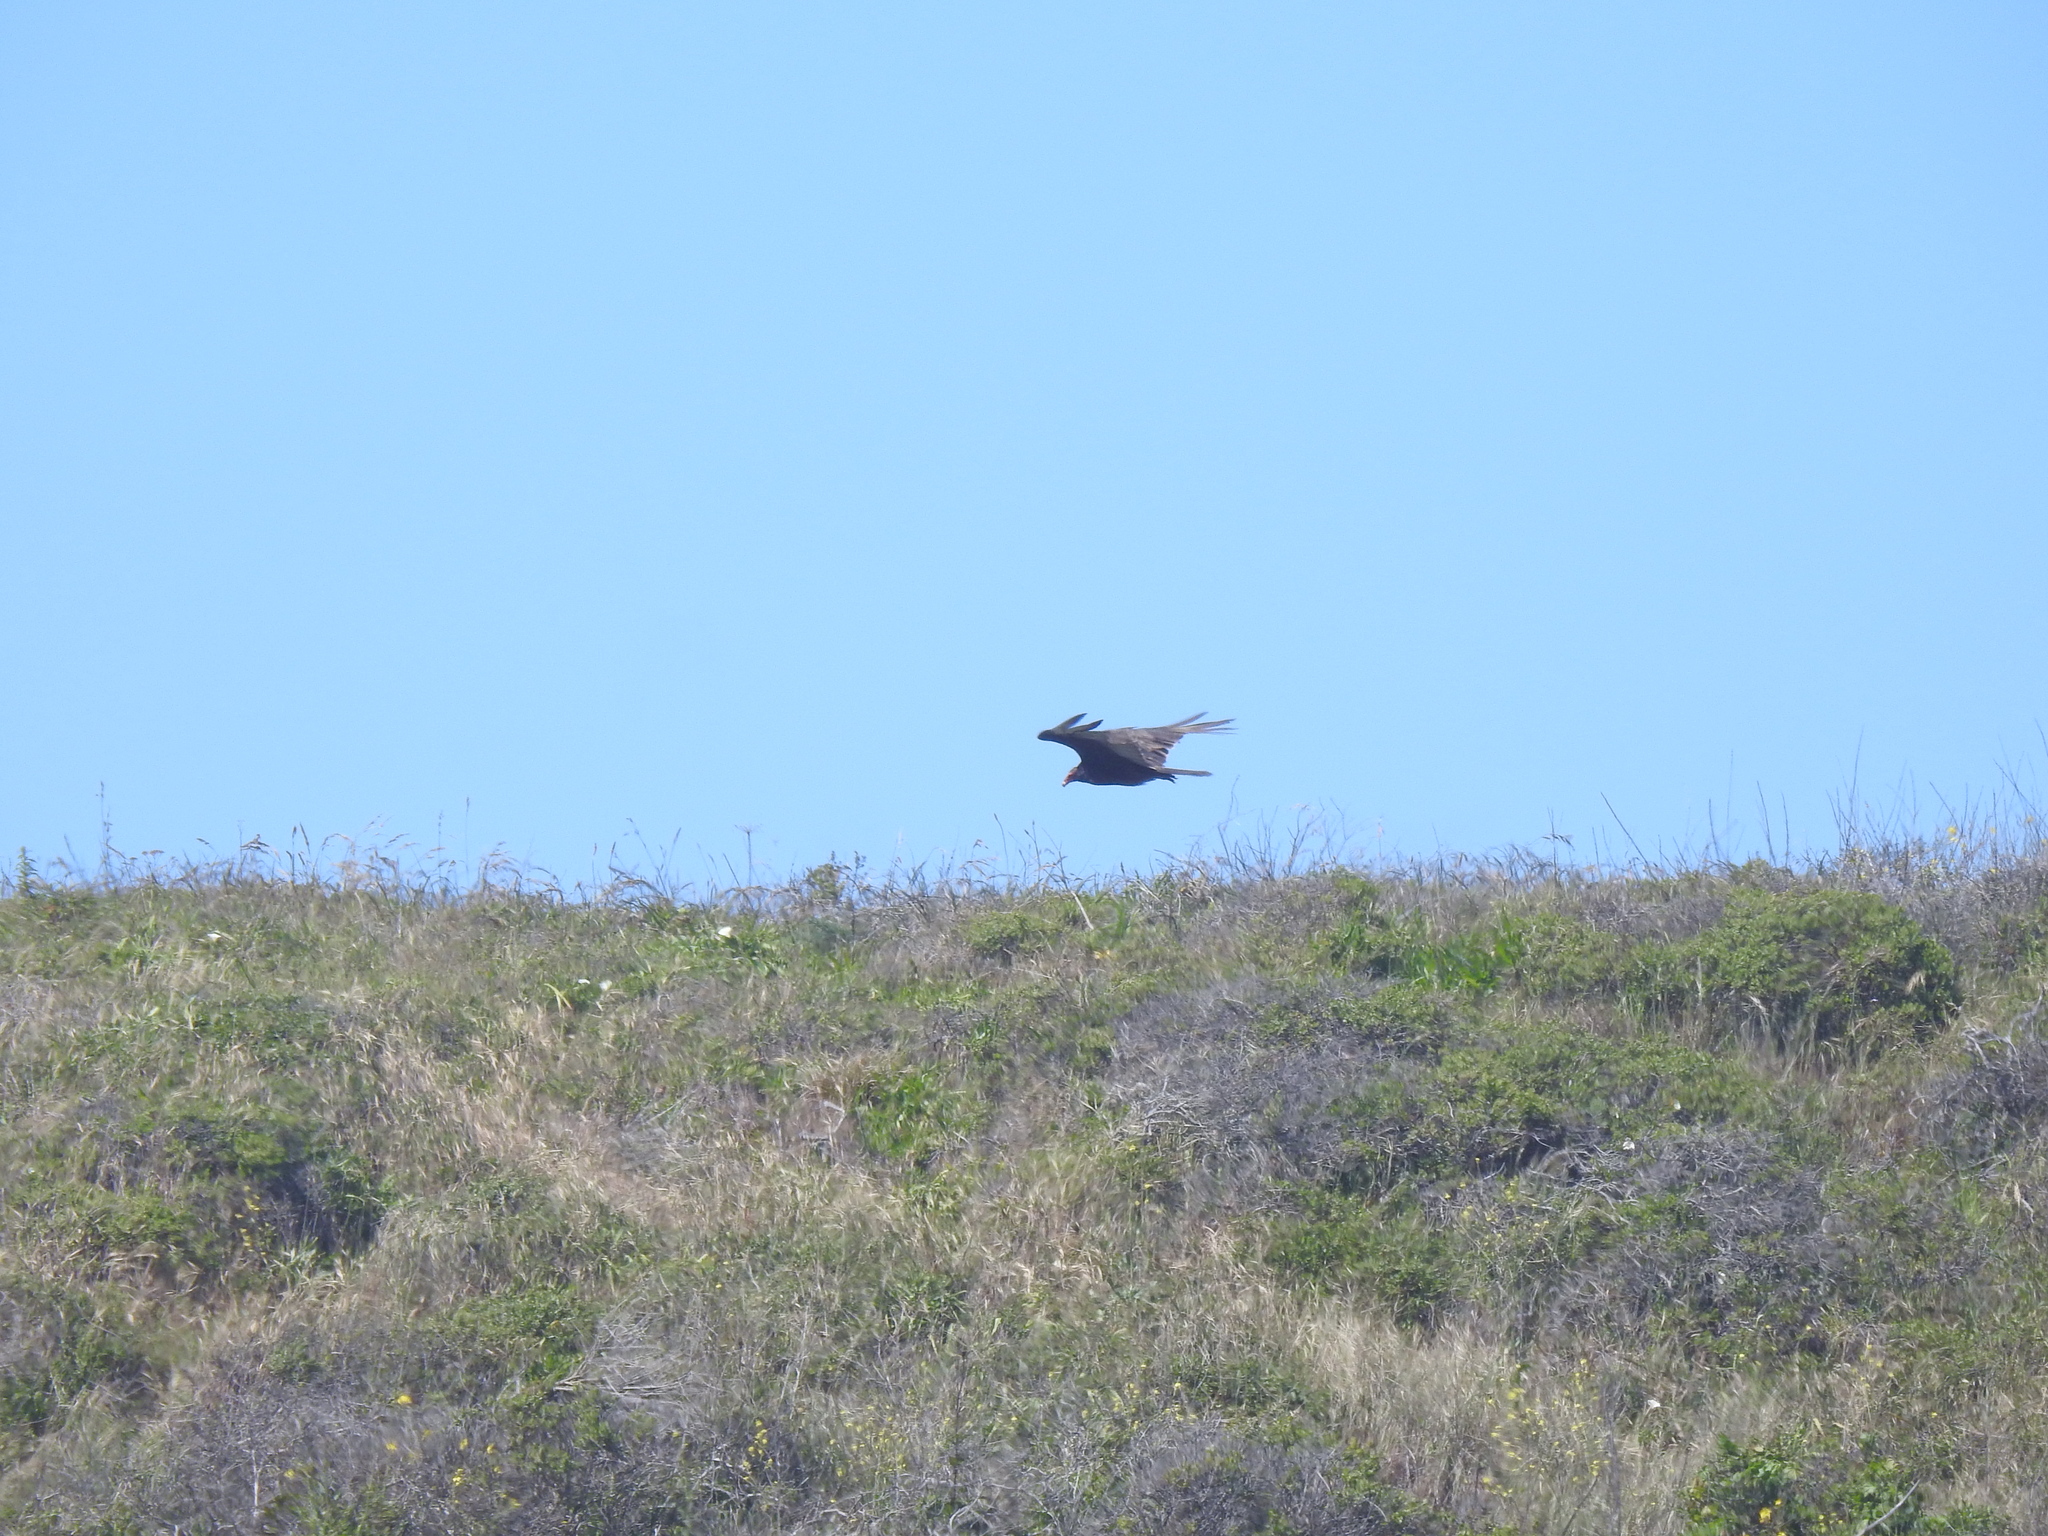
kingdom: Animalia
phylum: Chordata
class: Aves
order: Accipitriformes
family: Cathartidae
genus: Cathartes
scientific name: Cathartes aura
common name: Turkey vulture
